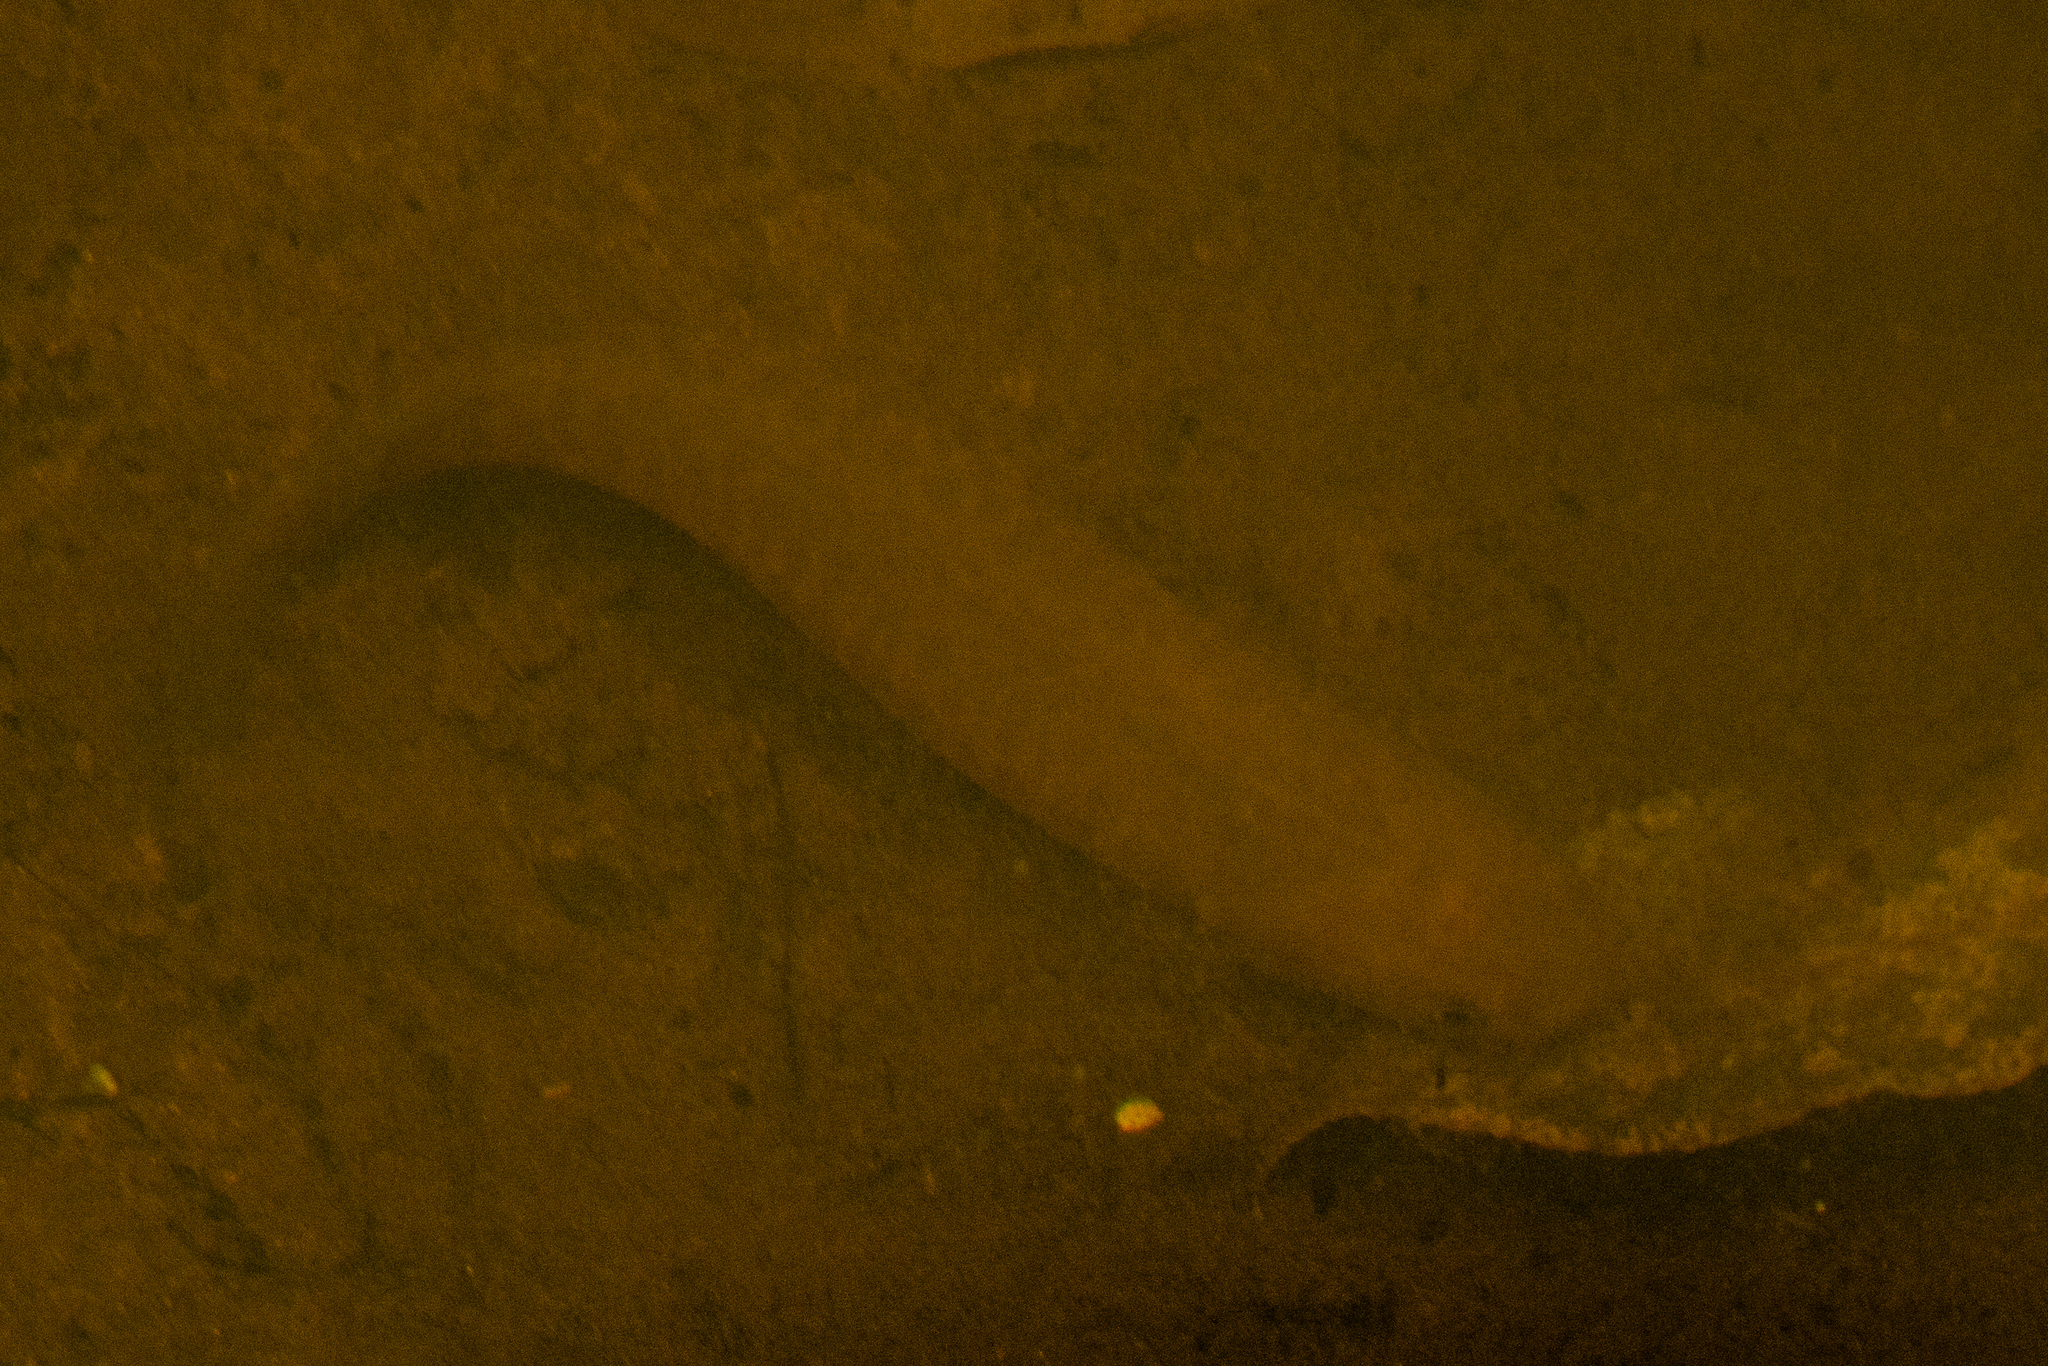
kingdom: Animalia
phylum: Chordata
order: Osmeriformes
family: Galaxiidae
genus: Galaxias
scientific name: Galaxias fasciatus
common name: Banded kokopu
